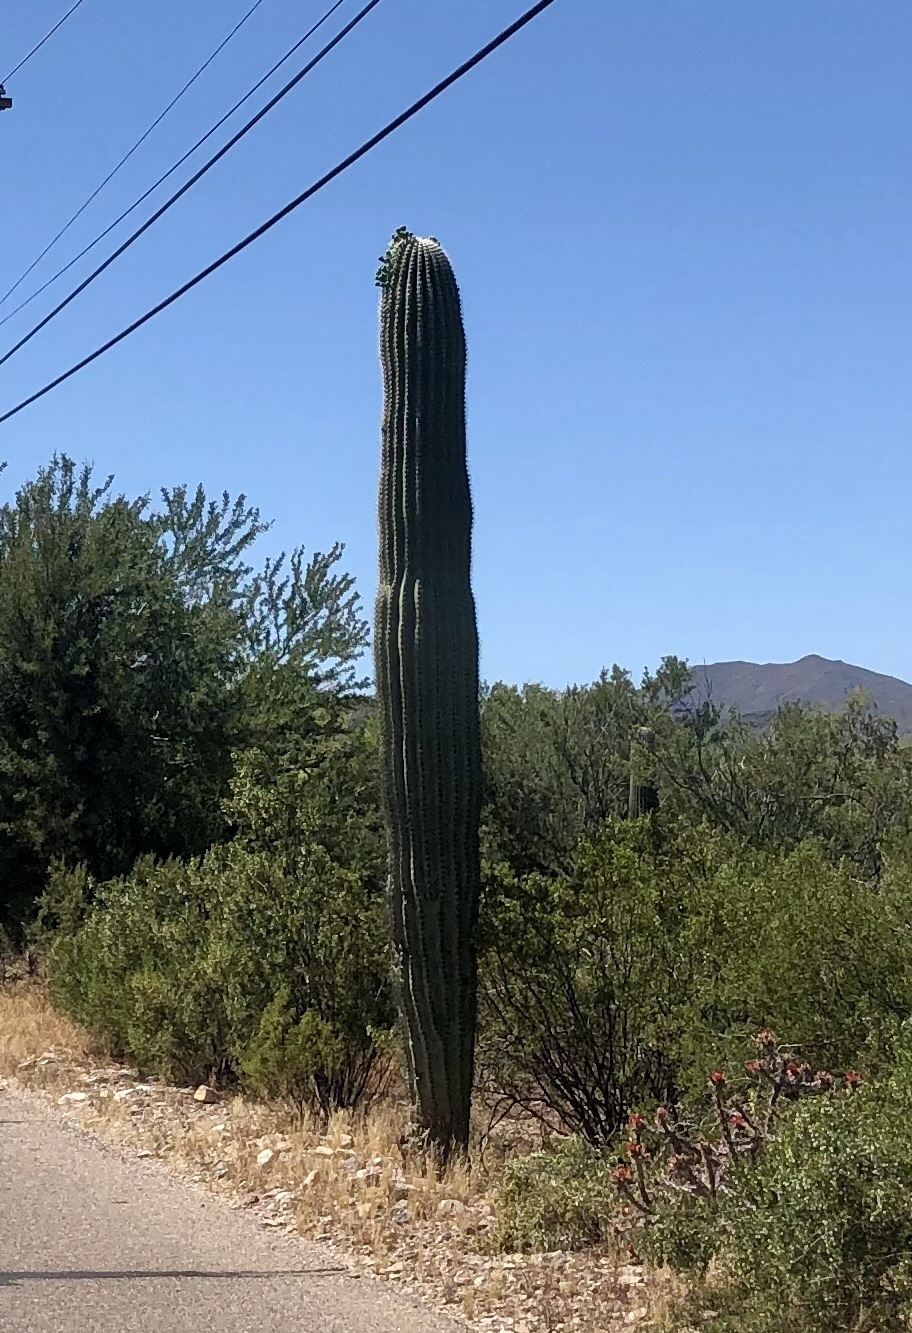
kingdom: Plantae
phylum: Tracheophyta
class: Magnoliopsida
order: Caryophyllales
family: Cactaceae
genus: Carnegiea
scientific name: Carnegiea gigantea
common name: Saguaro
